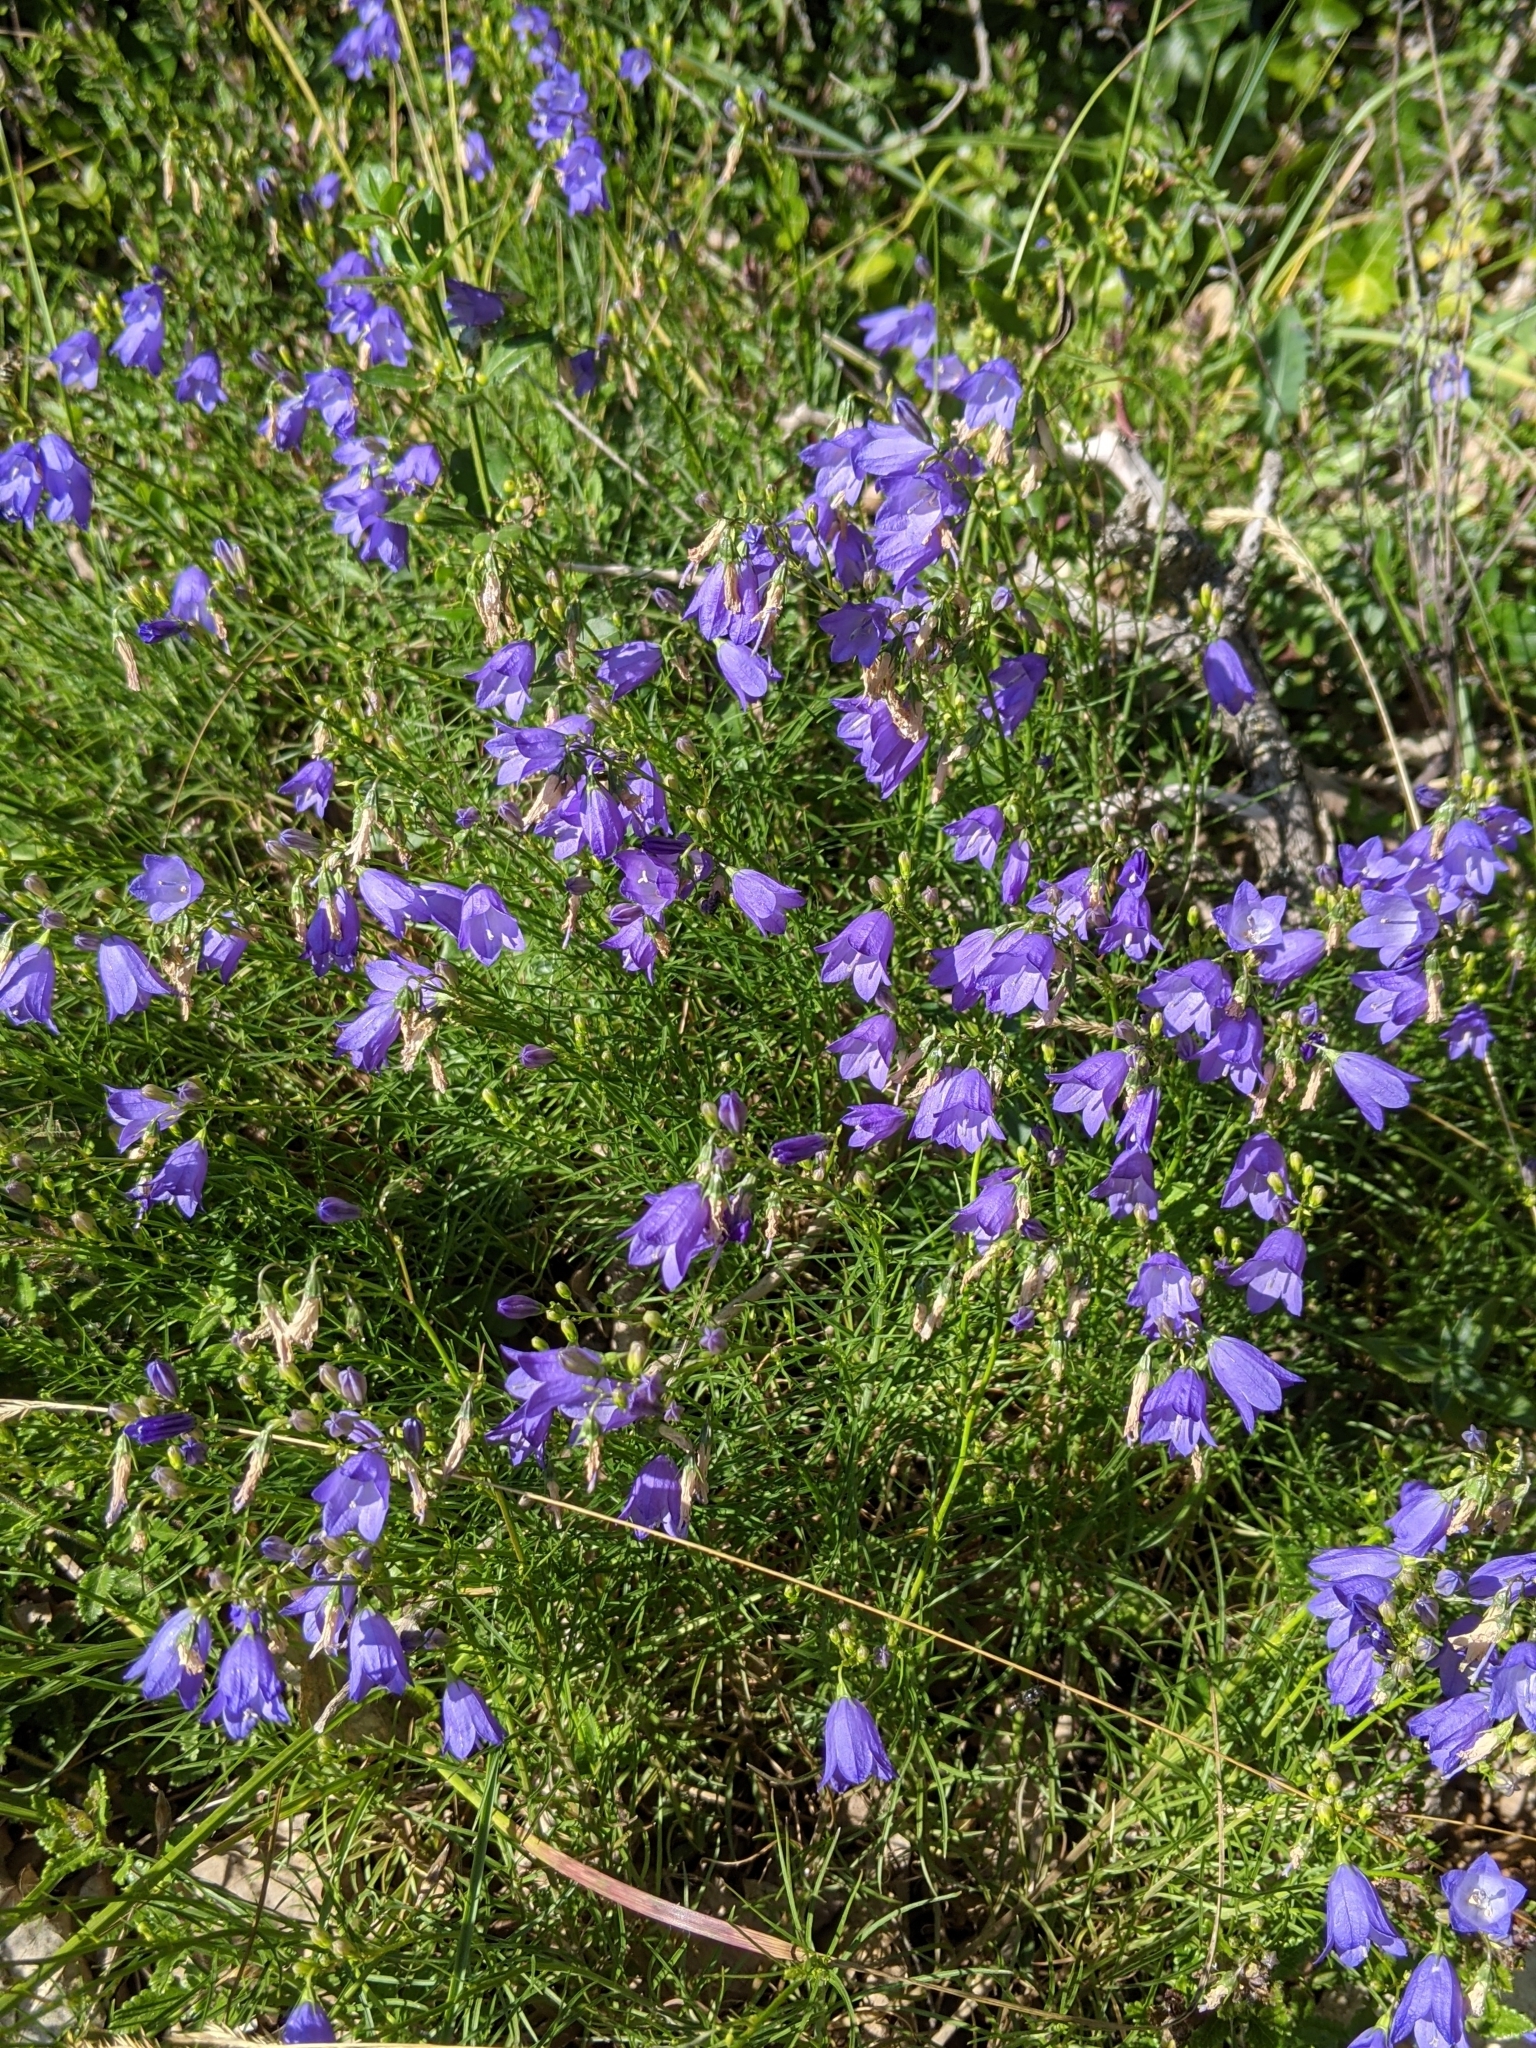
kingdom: Plantae
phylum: Tracheophyta
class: Magnoliopsida
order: Asterales
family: Campanulaceae
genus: Campanula
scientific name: Campanula rotundifolia
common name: Harebell
